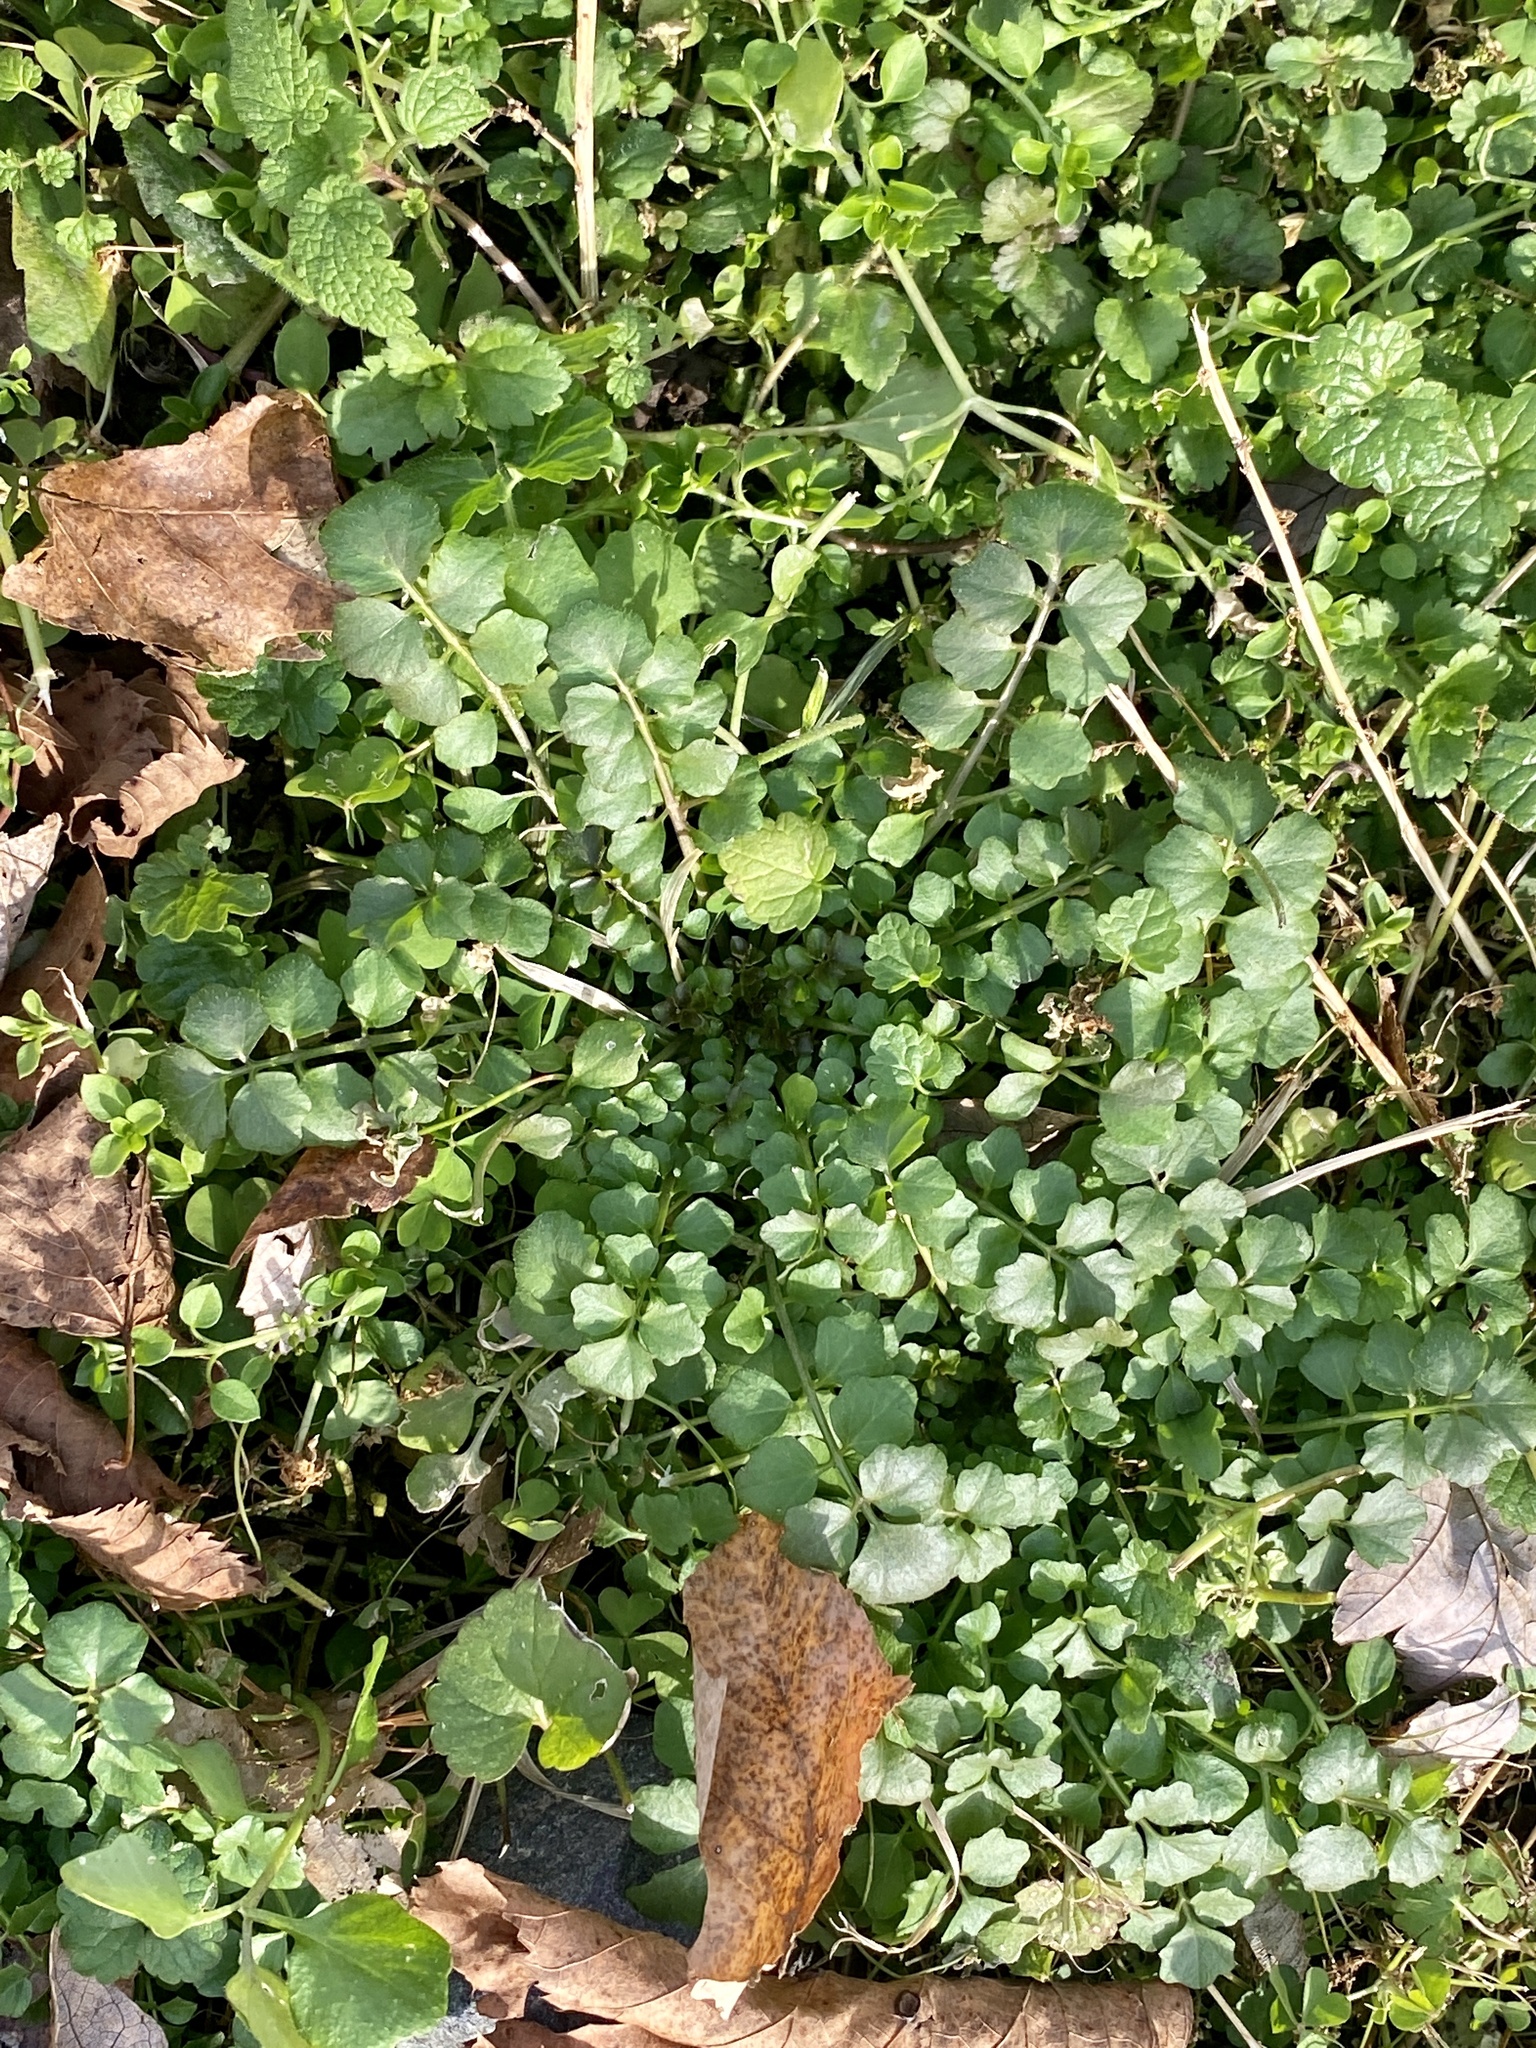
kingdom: Plantae
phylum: Tracheophyta
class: Magnoliopsida
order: Brassicales
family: Brassicaceae
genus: Cardamine
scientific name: Cardamine hirsuta
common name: Hairy bittercress
